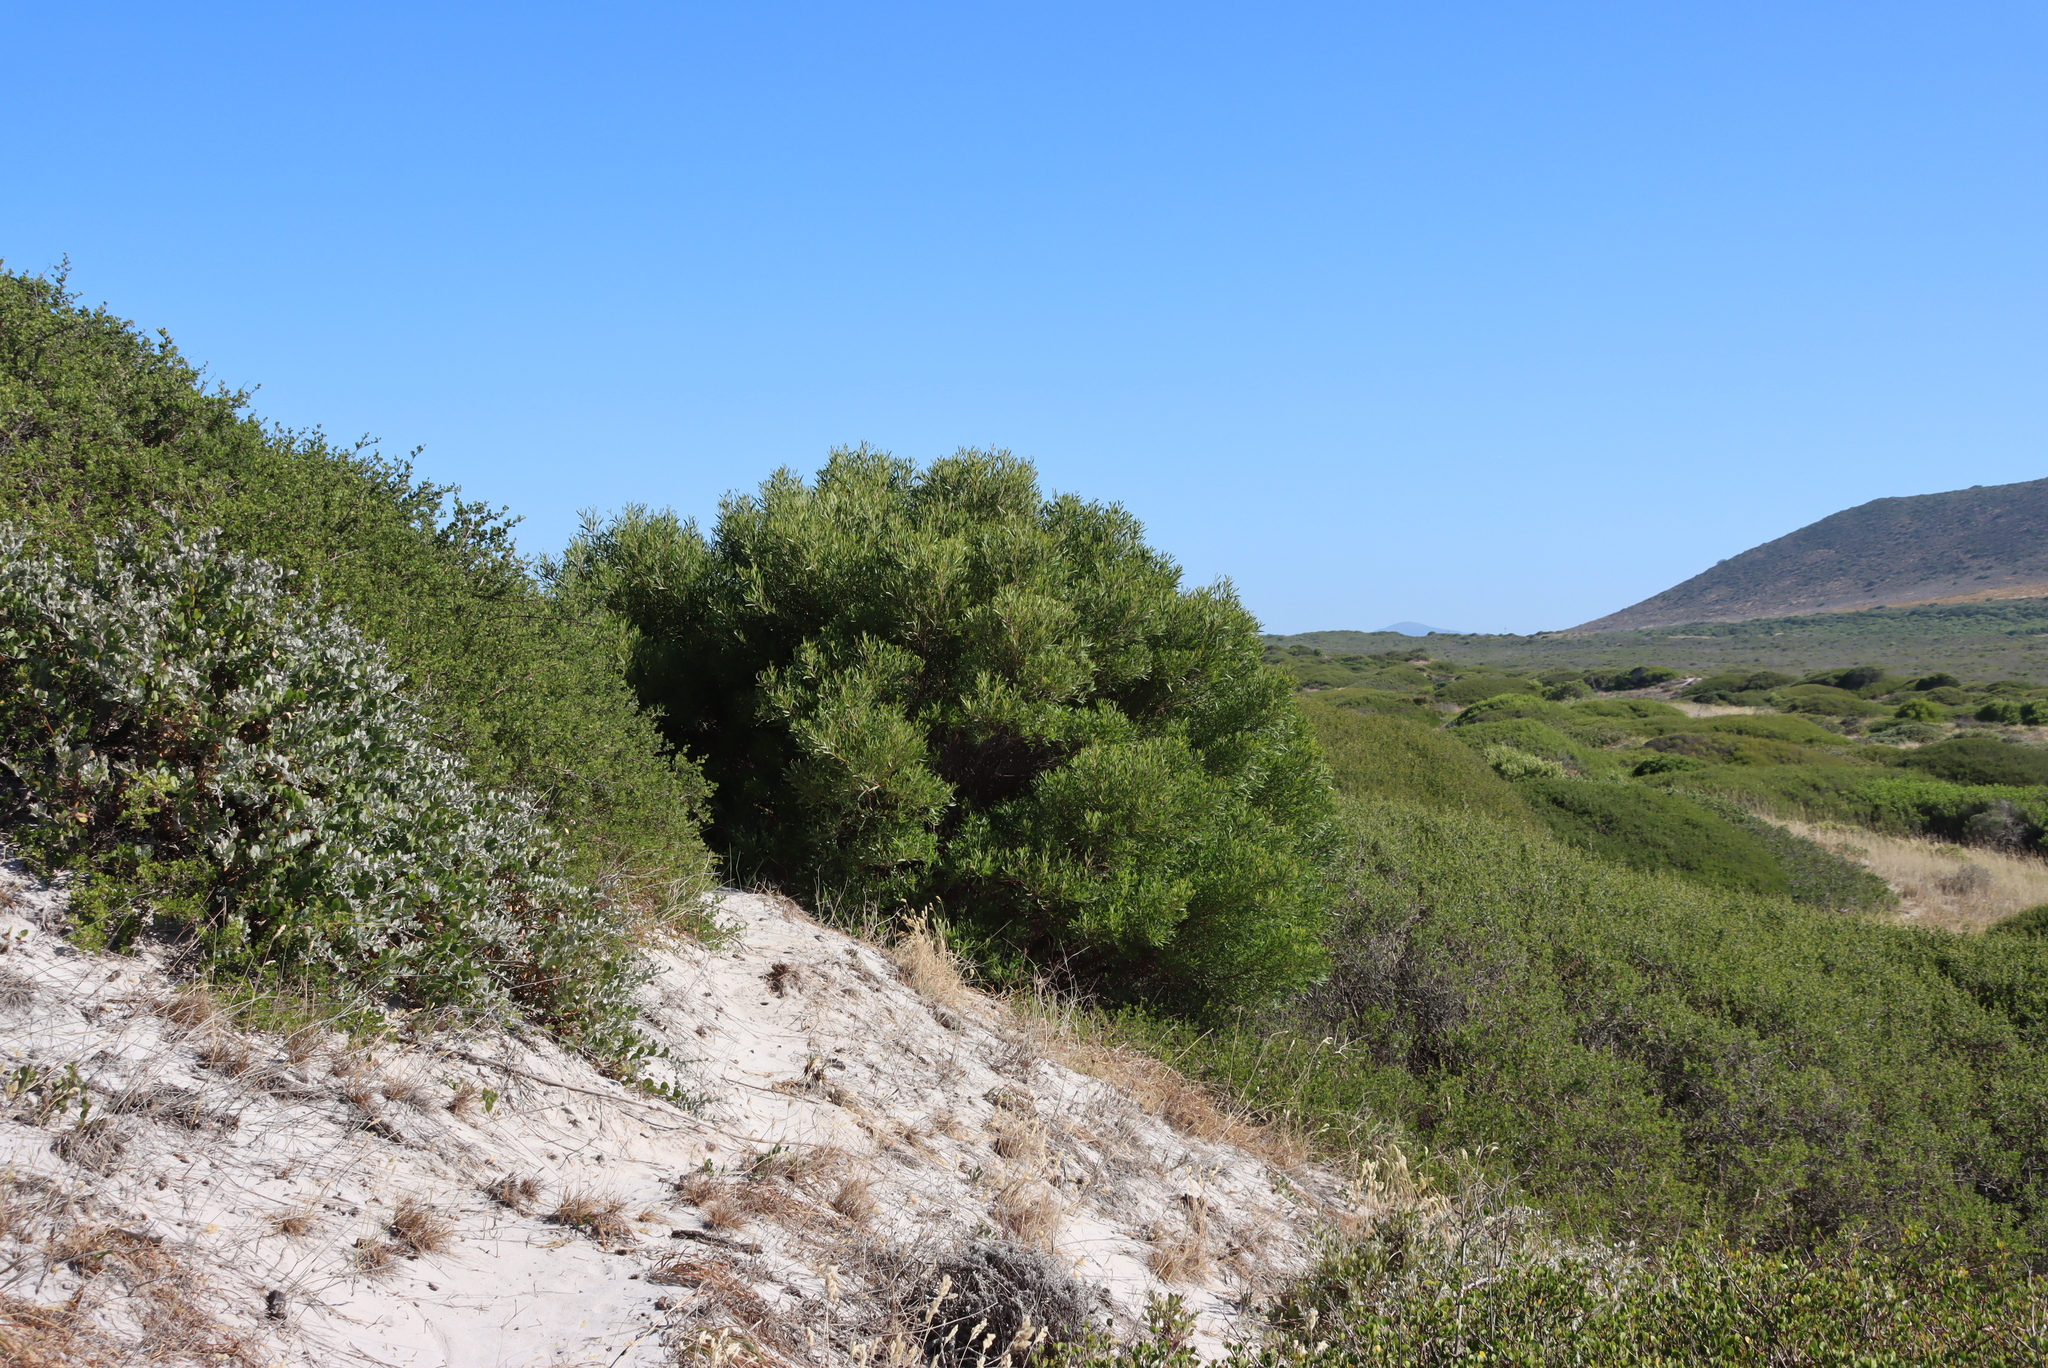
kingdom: Plantae
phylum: Tracheophyta
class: Magnoliopsida
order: Fabales
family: Fabaceae
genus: Acacia
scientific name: Acacia cyclops
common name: Coastal wattle
